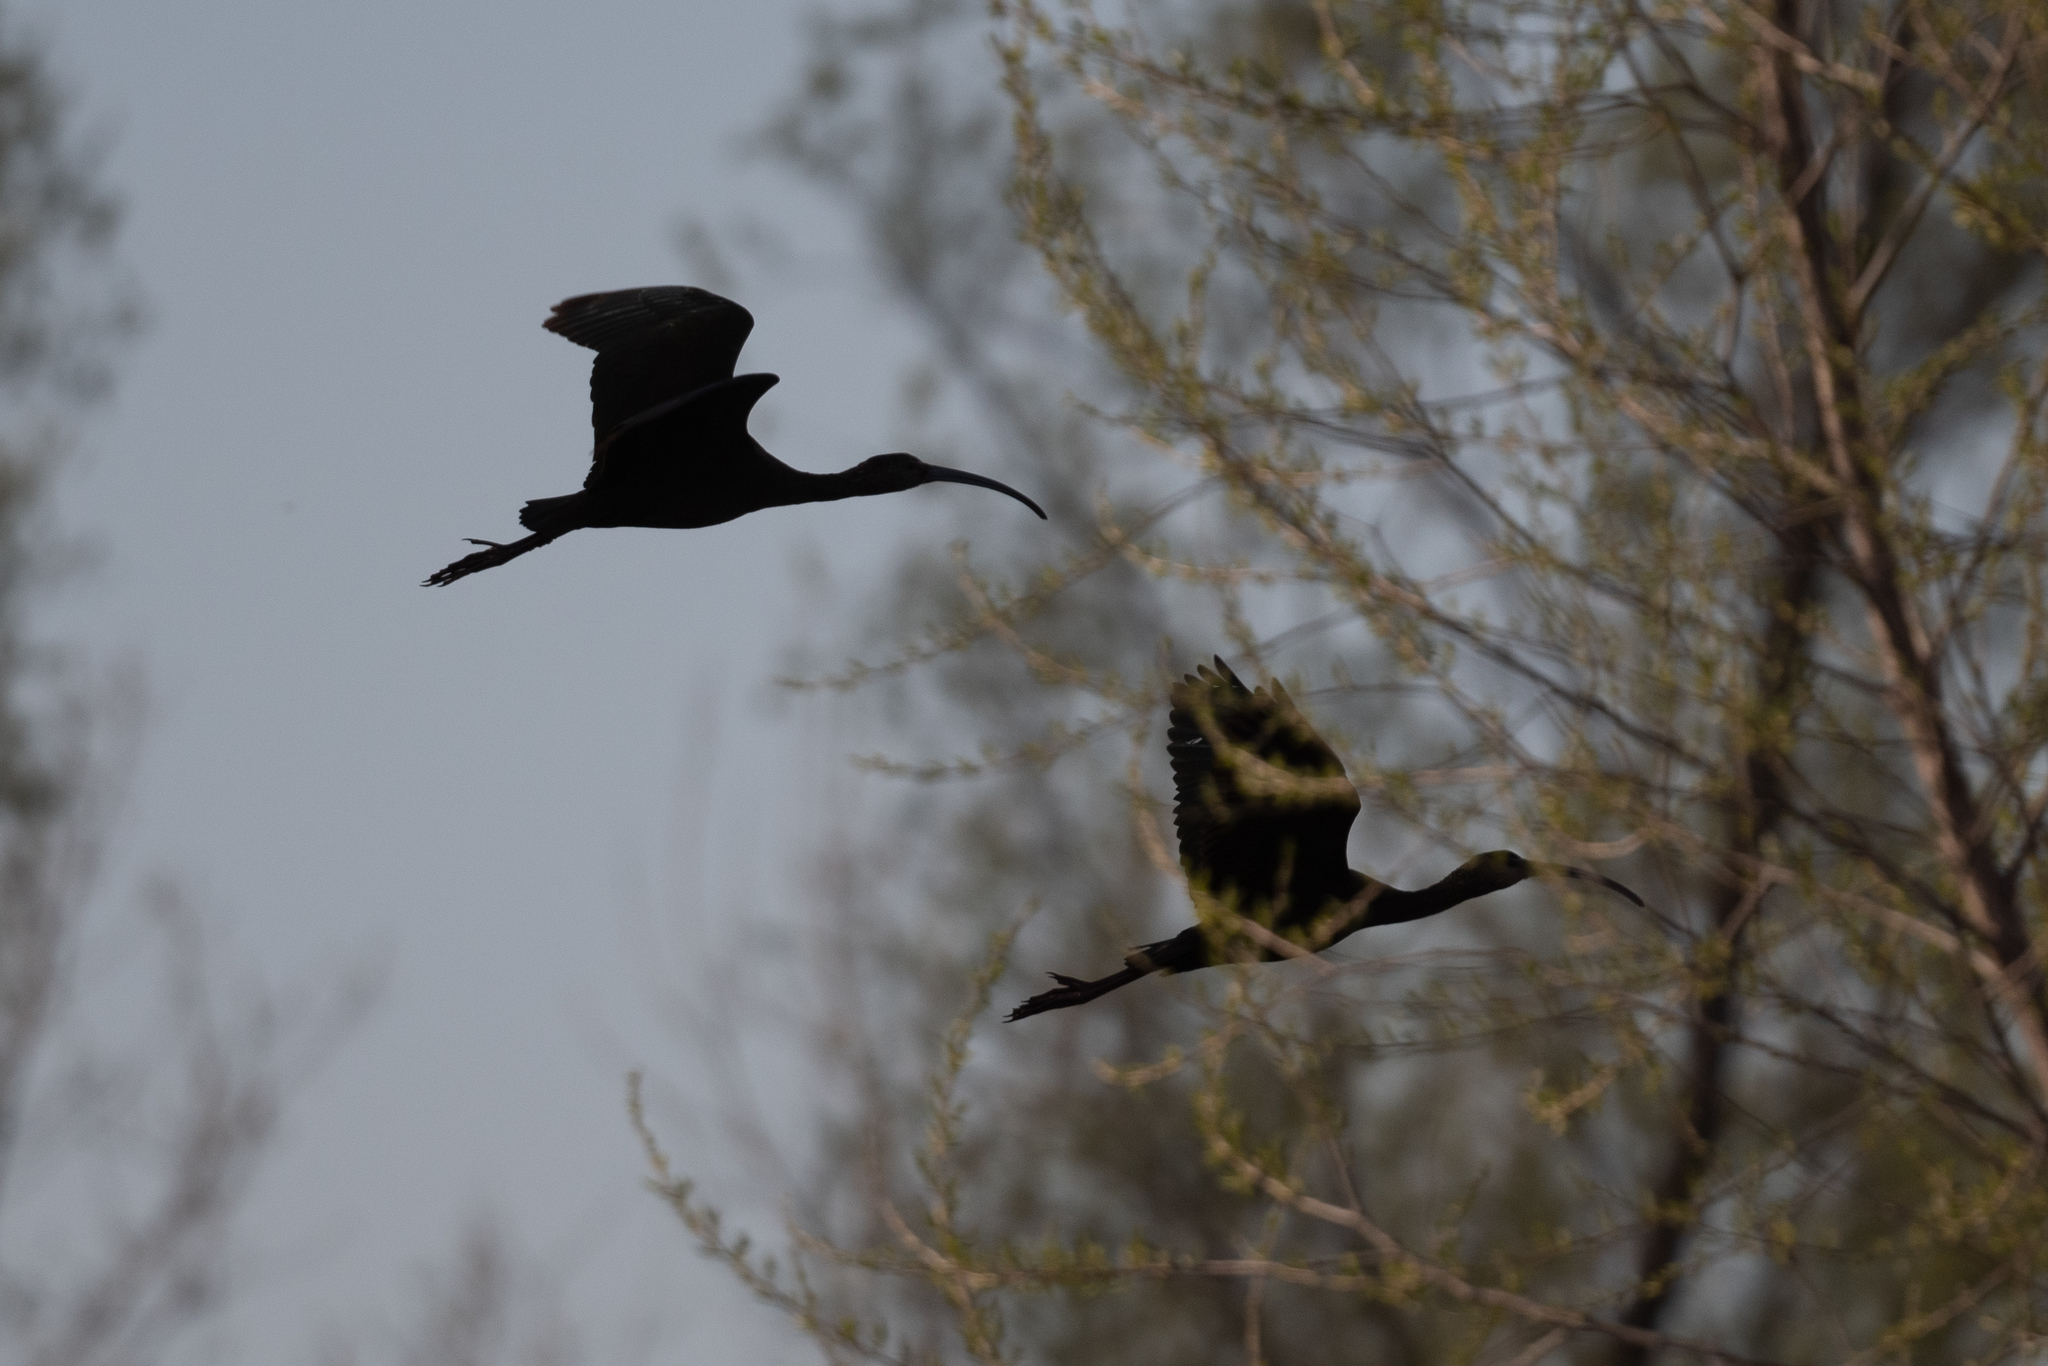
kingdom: Animalia
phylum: Chordata
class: Aves
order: Pelecaniformes
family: Threskiornithidae
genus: Plegadis
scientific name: Plegadis chihi
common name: White-faced ibis
